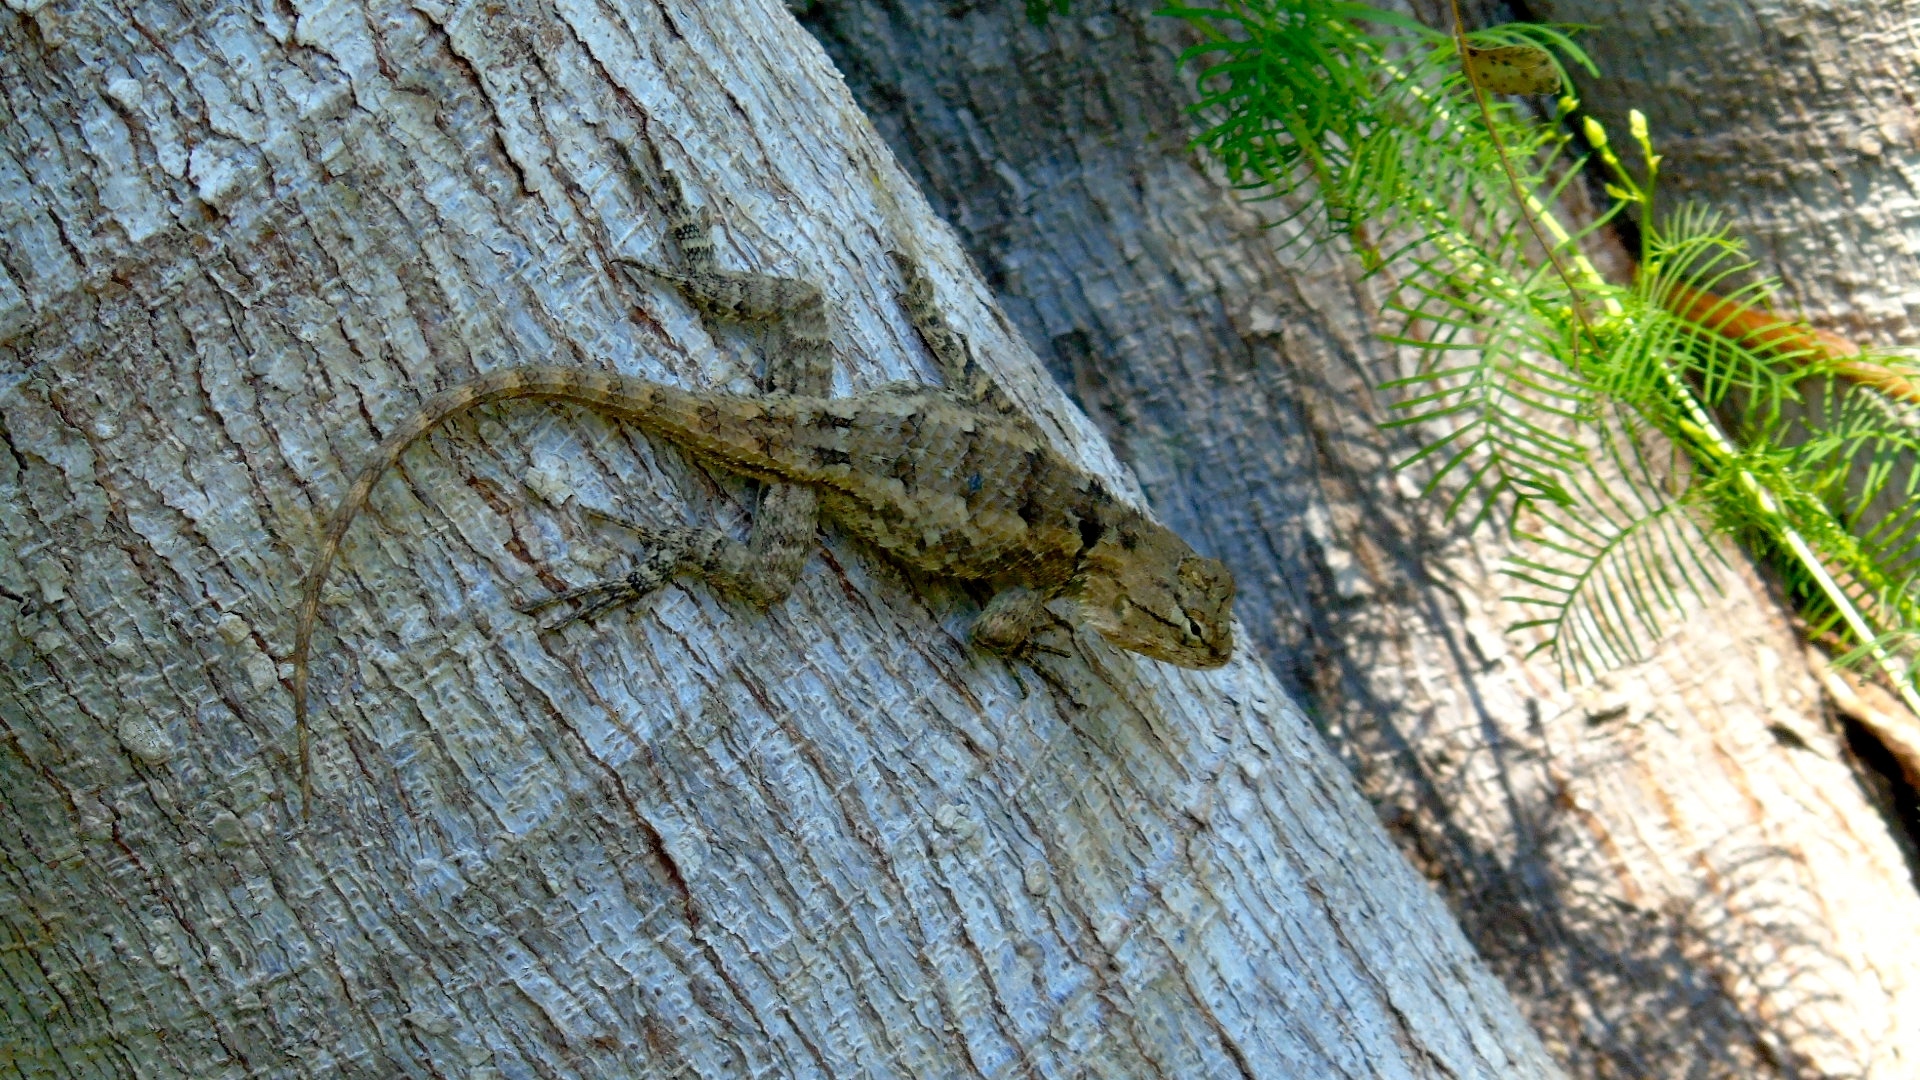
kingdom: Animalia
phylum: Chordata
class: Squamata
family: Phrynosomatidae
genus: Sceloporus
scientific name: Sceloporus clarkii
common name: Clark's spiny lizard
